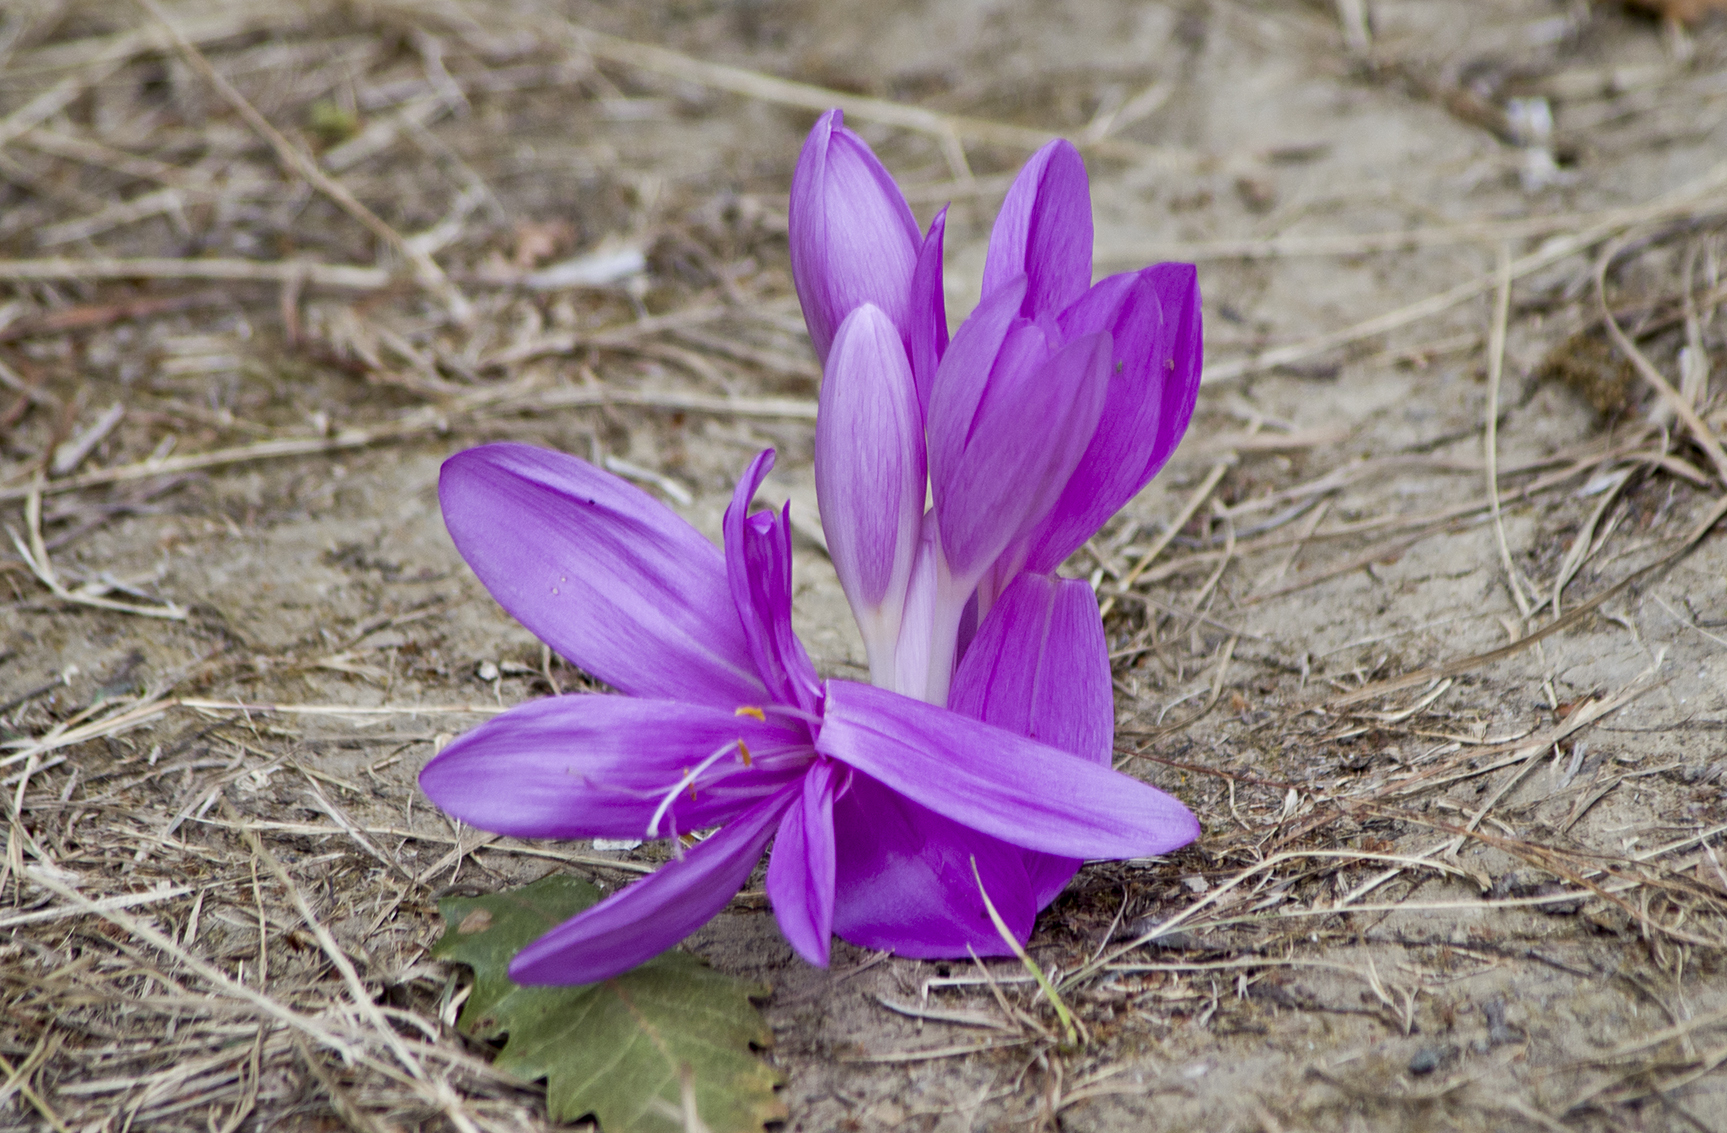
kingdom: Plantae
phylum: Tracheophyta
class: Liliopsida
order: Liliales
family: Colchicaceae
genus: Colchicum
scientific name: Colchicum autumnale
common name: Autumn crocus
